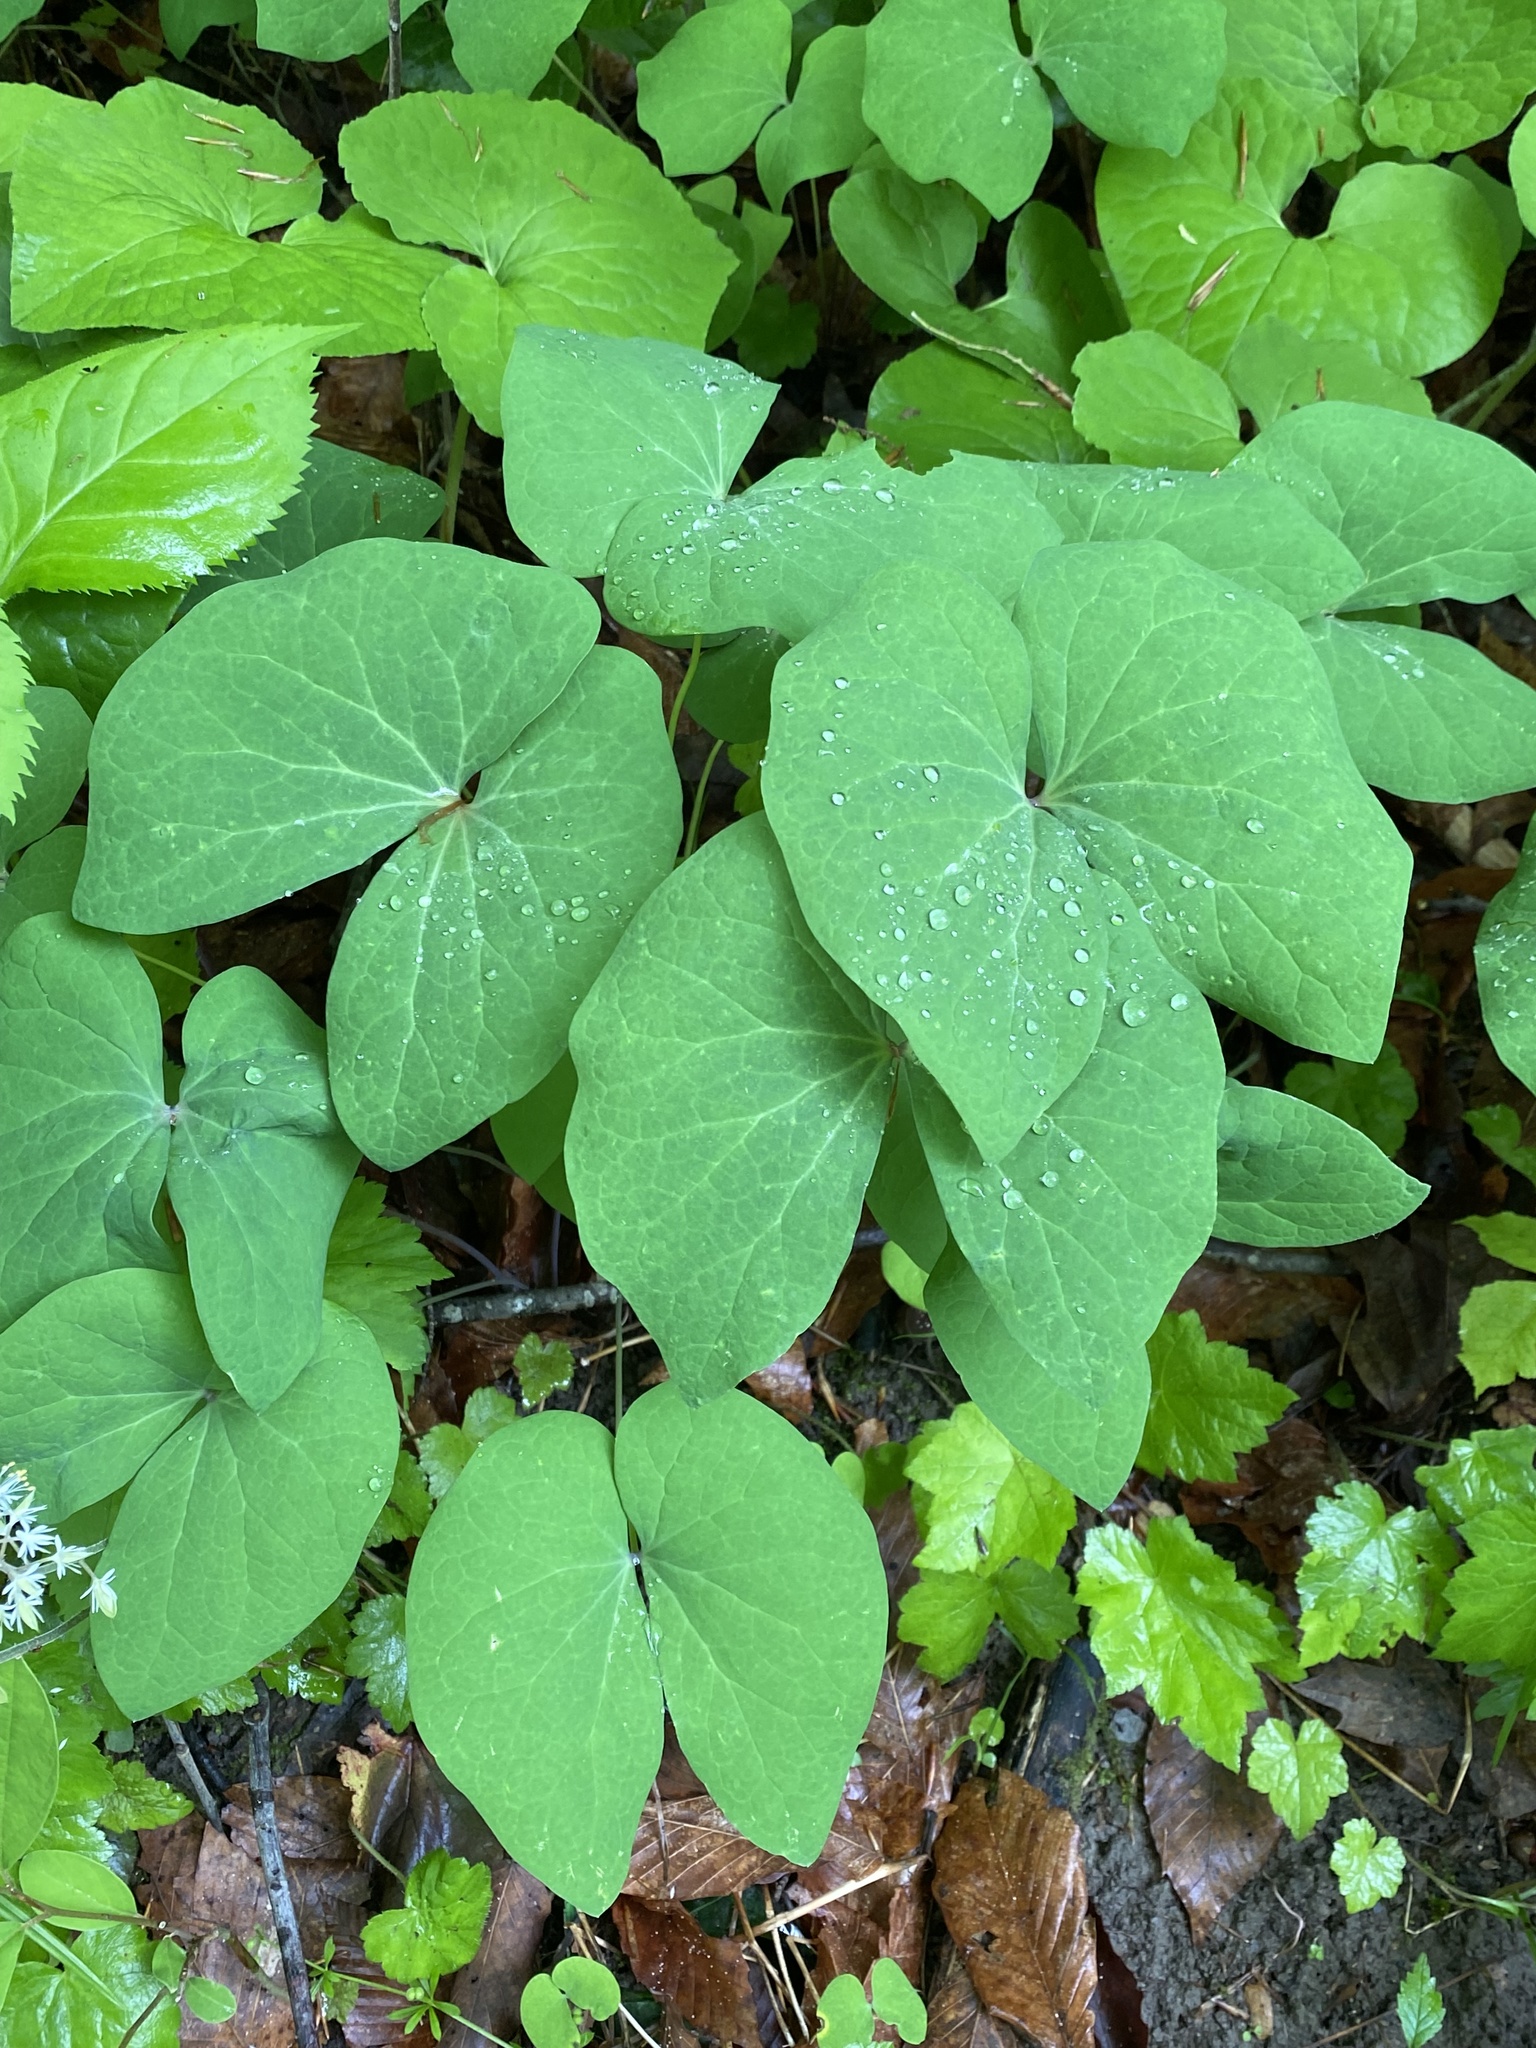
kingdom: Plantae
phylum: Tracheophyta
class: Magnoliopsida
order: Ranunculales
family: Berberidaceae
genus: Jeffersonia
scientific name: Jeffersonia diphylla
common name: Rheumatism-root
